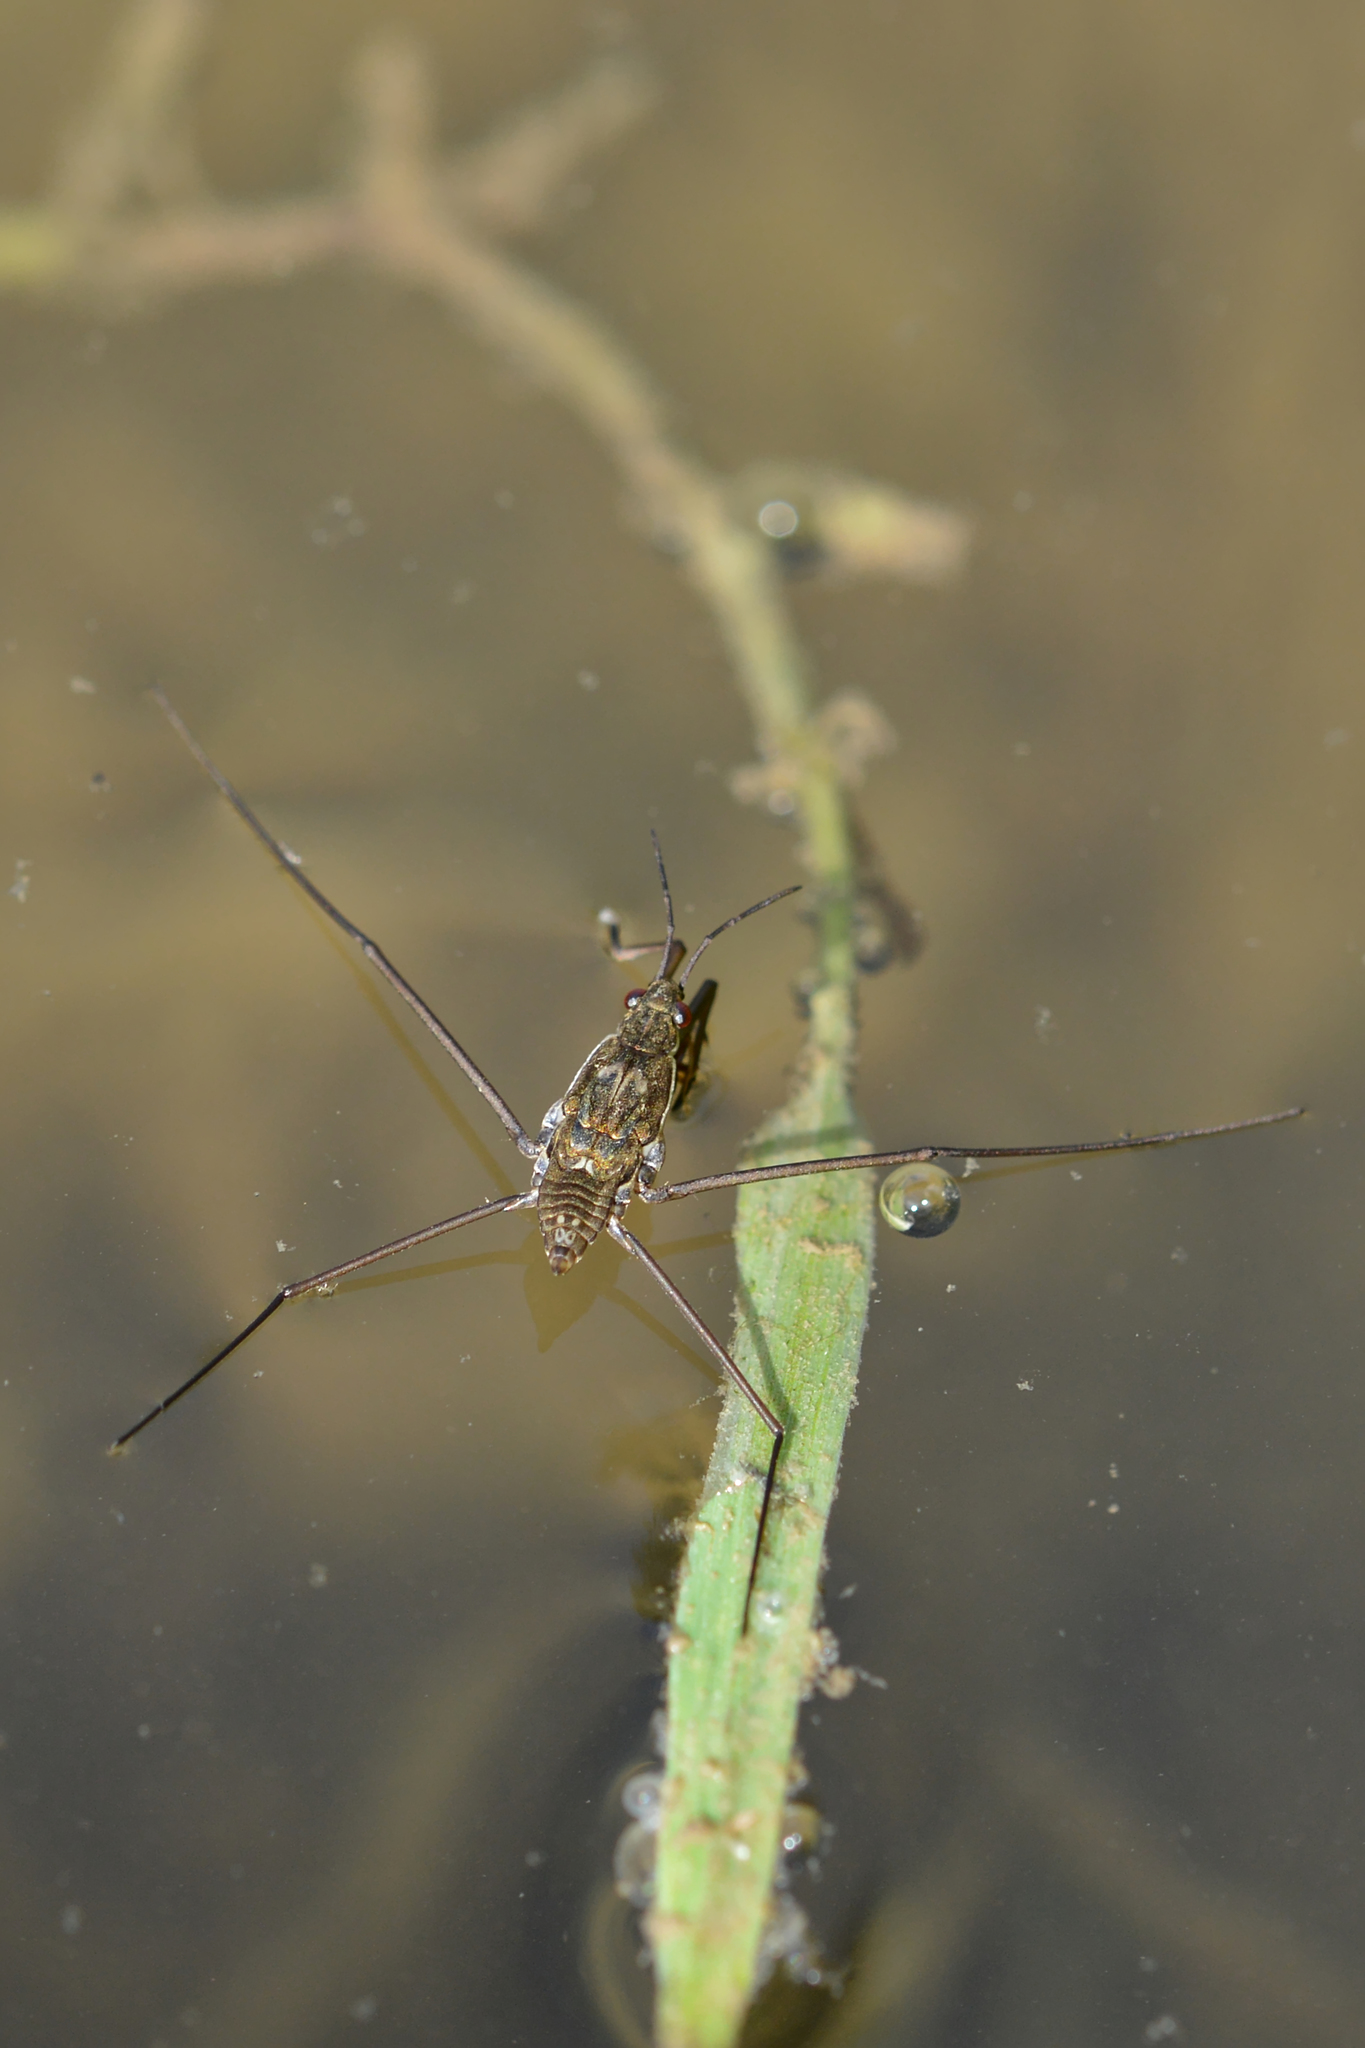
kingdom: Animalia
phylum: Arthropoda
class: Insecta
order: Hemiptera
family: Gerridae
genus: Aquarius
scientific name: Aquarius
